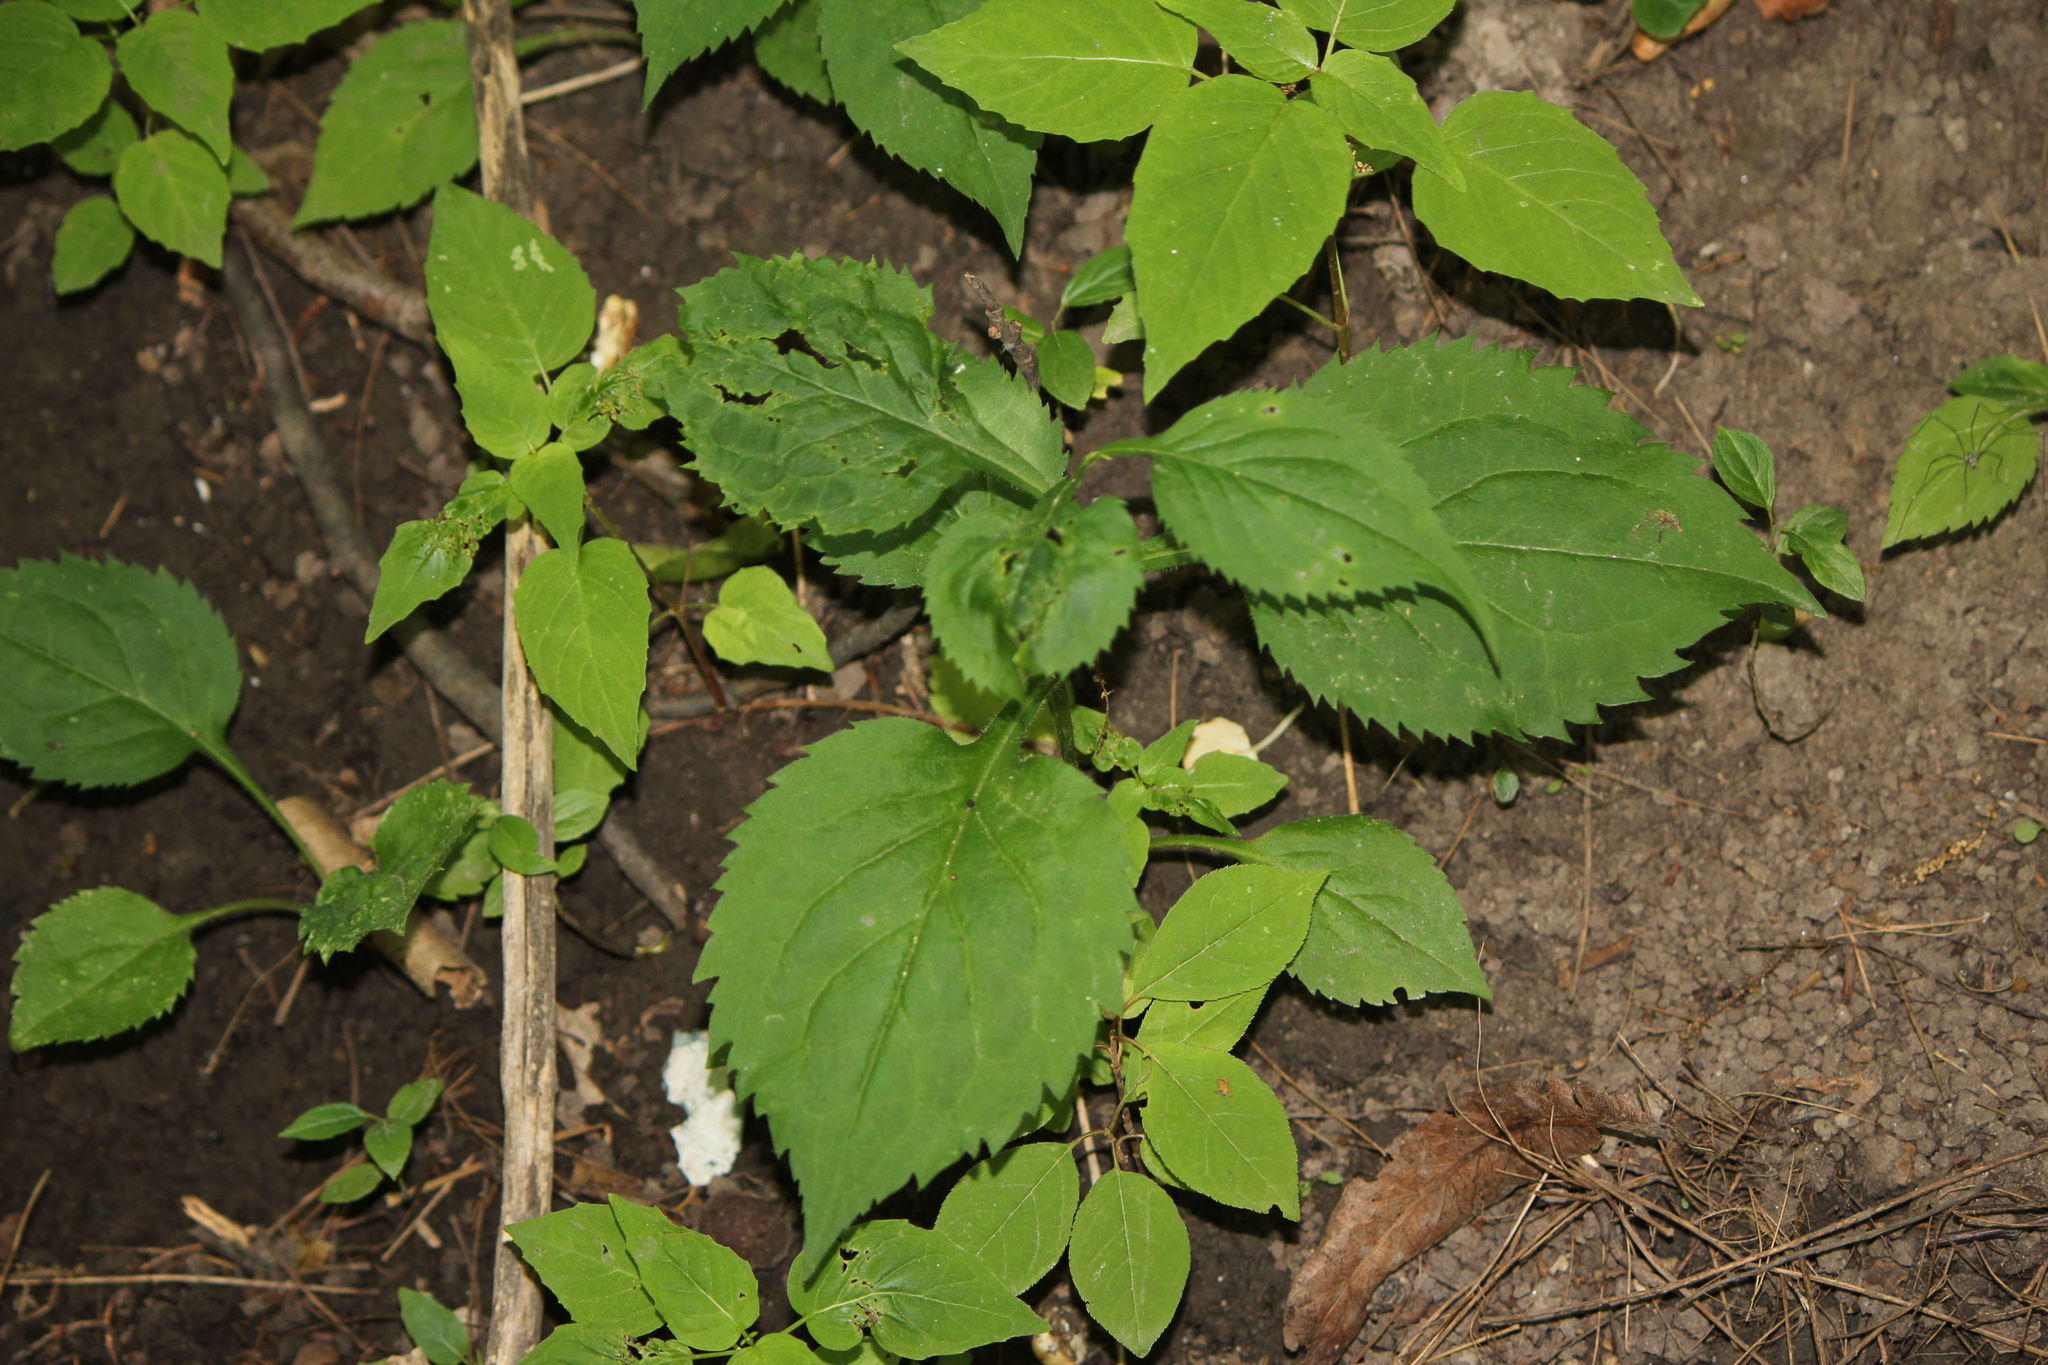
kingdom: Plantae
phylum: Tracheophyta
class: Magnoliopsida
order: Asterales
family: Asteraceae
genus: Solidago
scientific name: Solidago flexicaulis
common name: Zig-zag goldenrod
